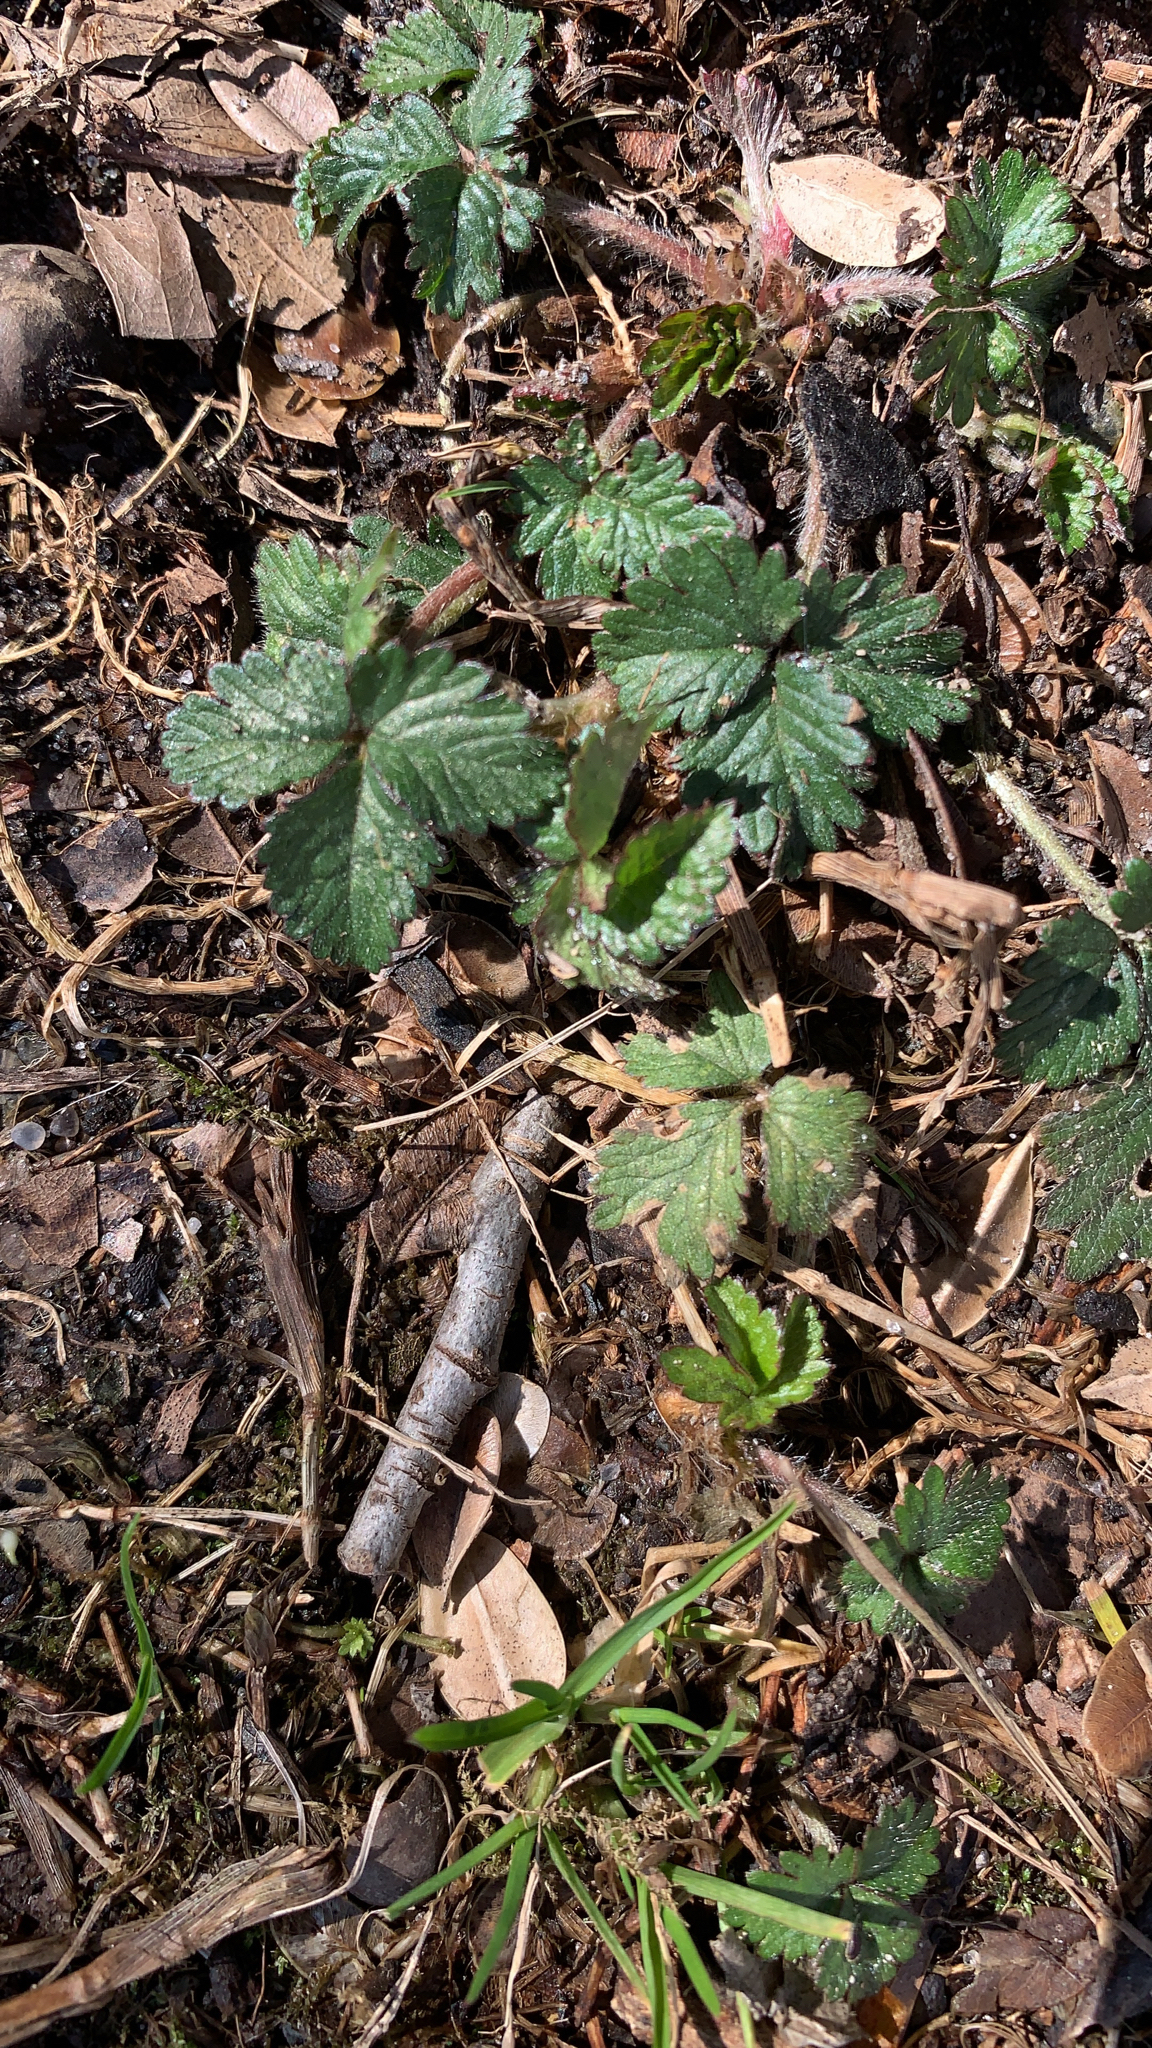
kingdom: Plantae
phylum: Tracheophyta
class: Magnoliopsida
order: Rosales
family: Rosaceae
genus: Potentilla
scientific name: Potentilla indica
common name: Yellow-flowered strawberry
